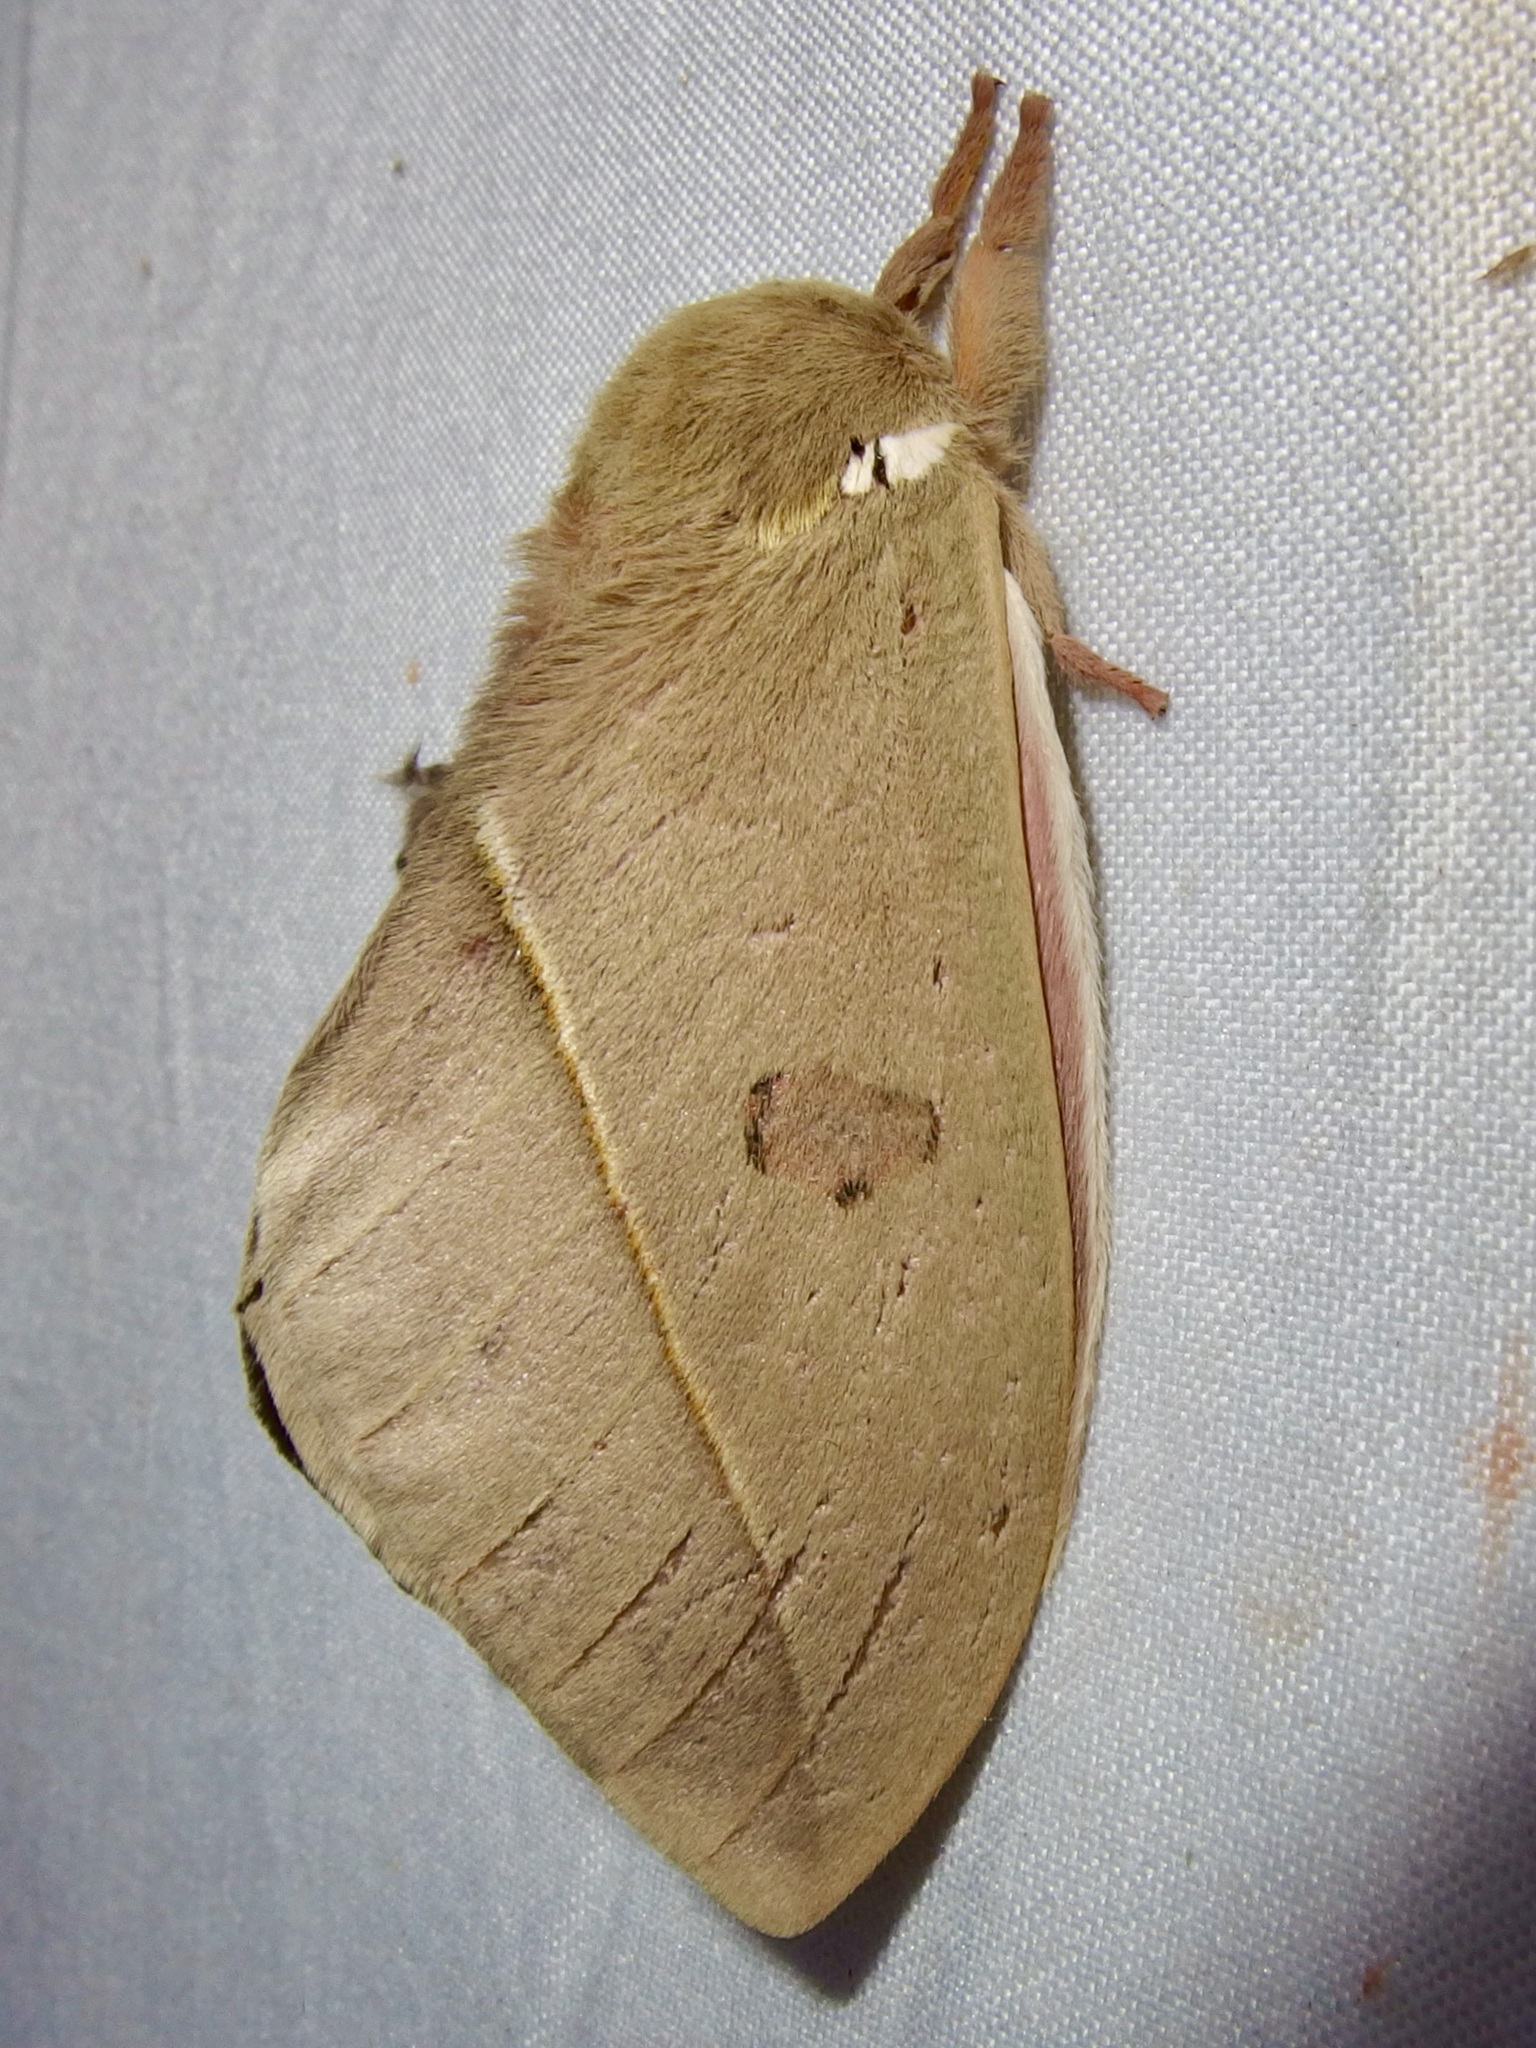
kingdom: Animalia
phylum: Arthropoda
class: Insecta
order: Lepidoptera
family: Saturniidae
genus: Automeris
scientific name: Automeris cecrops
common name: Cecrops eyed silkmoth
